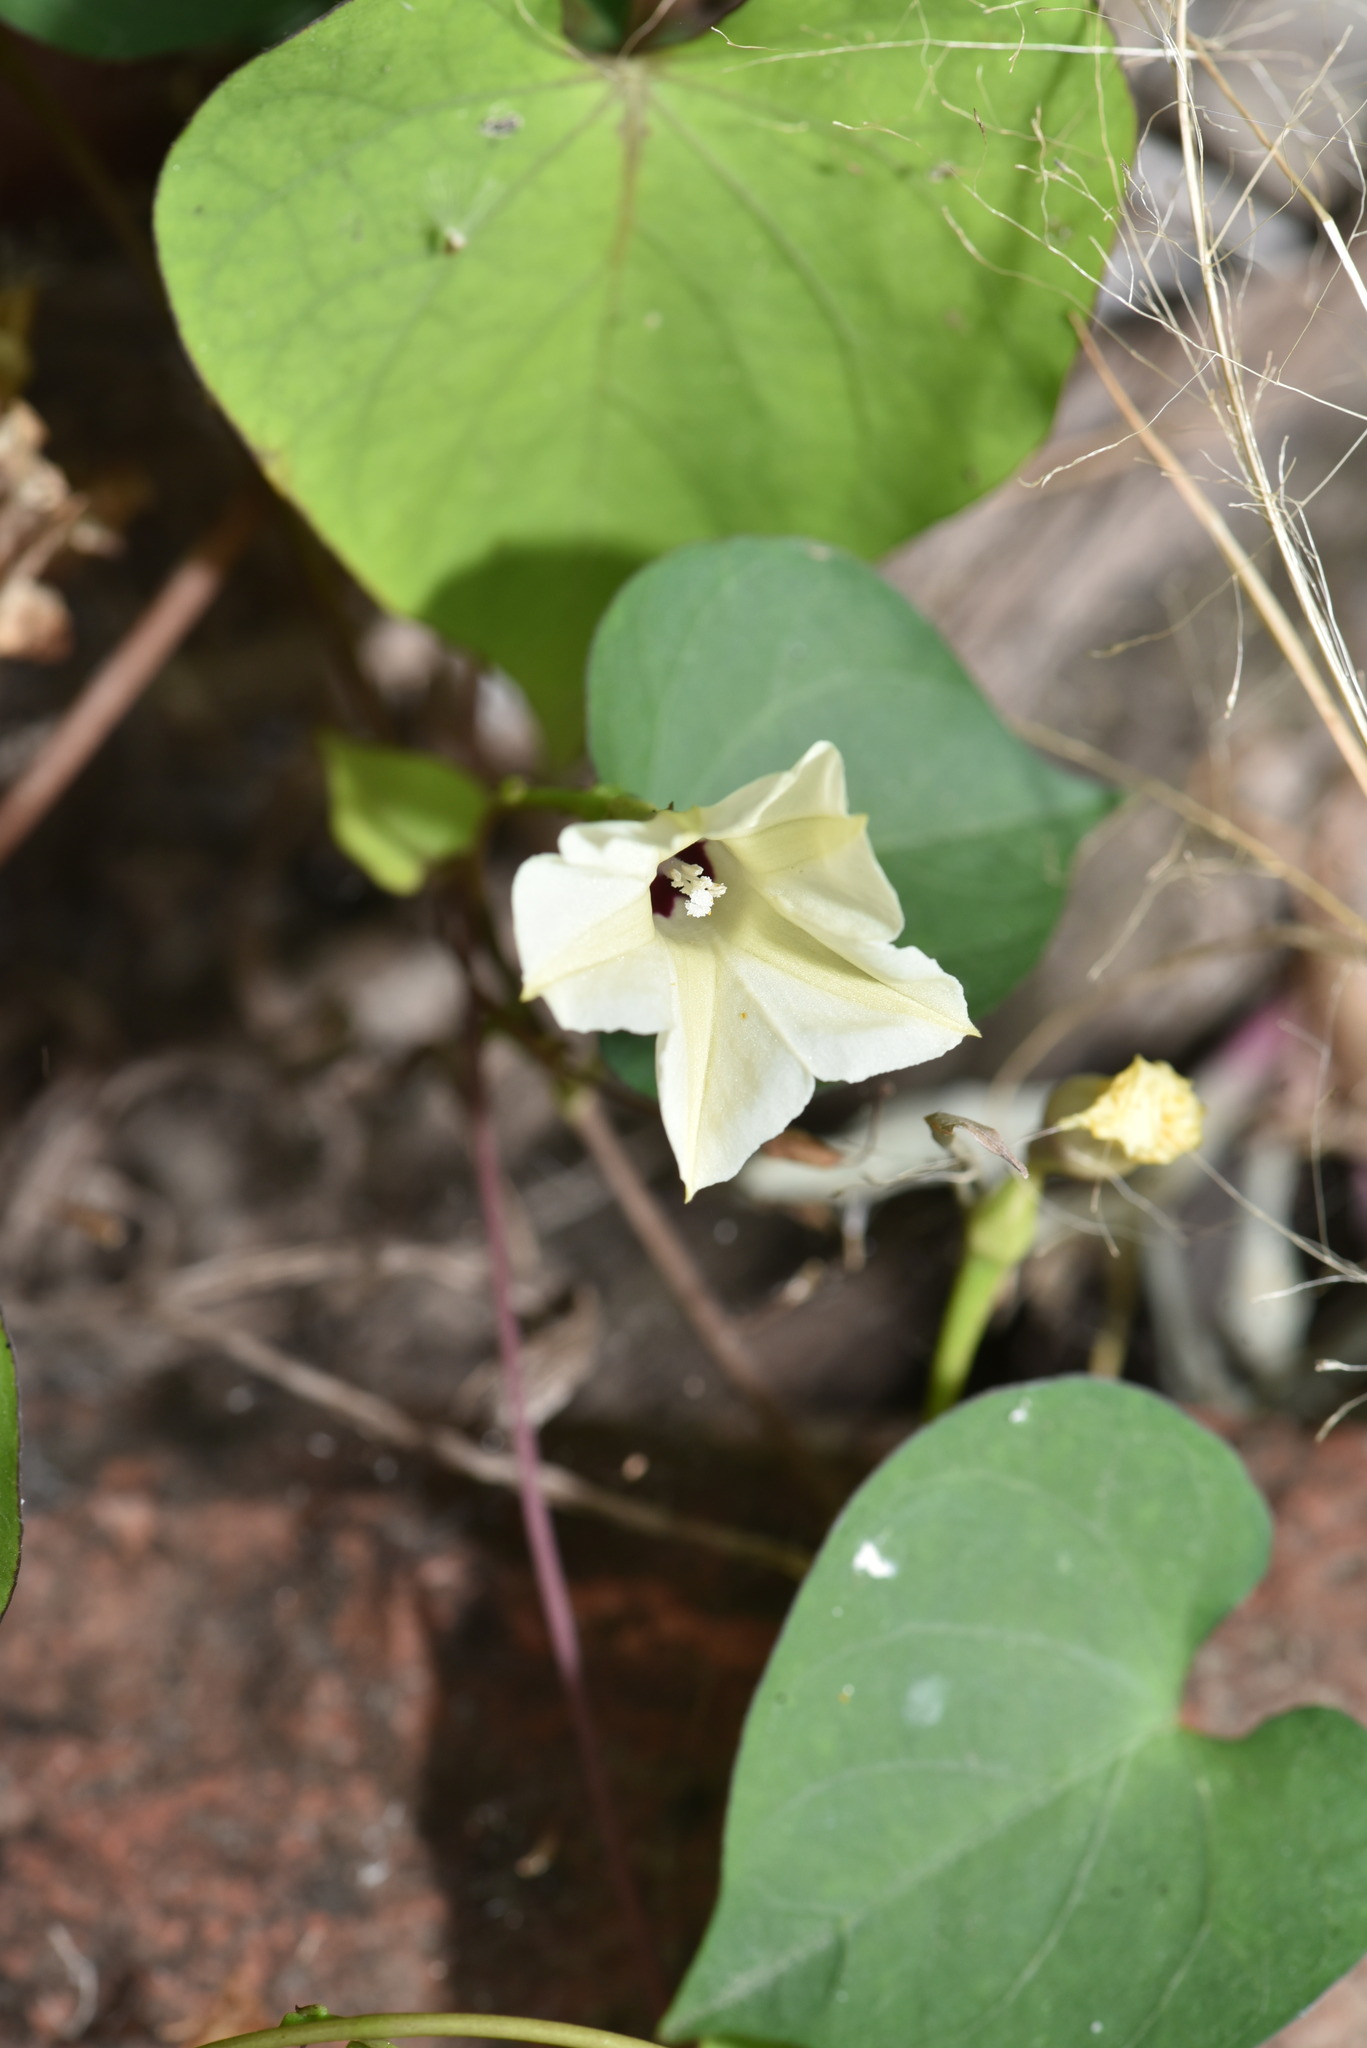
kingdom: Plantae
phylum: Tracheophyta
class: Magnoliopsida
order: Solanales
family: Convolvulaceae
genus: Ipomoea
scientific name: Ipomoea obscura
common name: Obscure morning-glory
